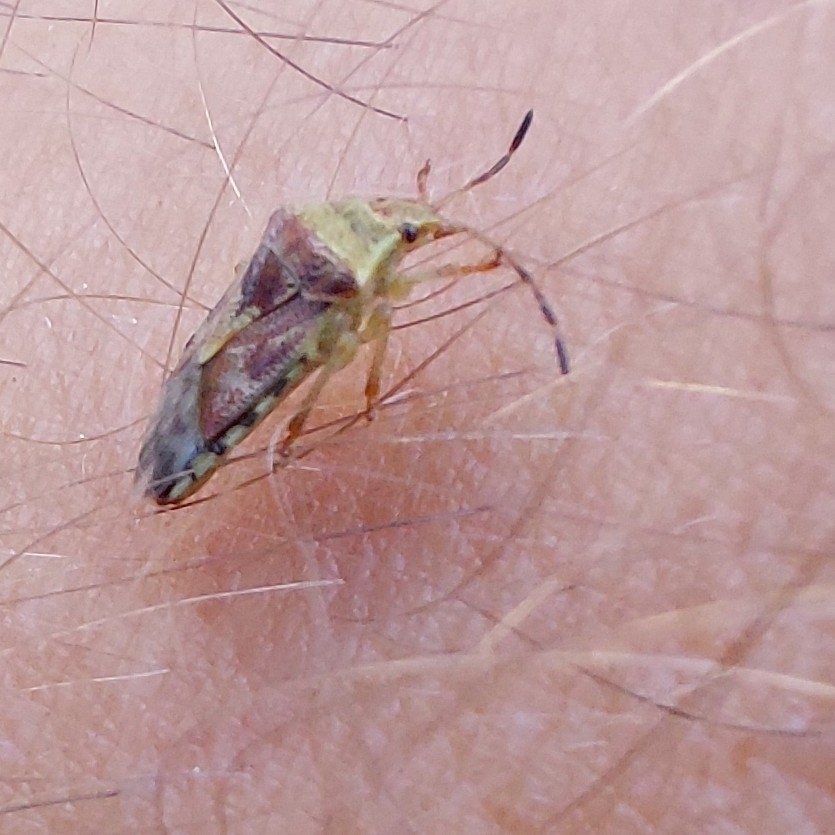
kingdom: Animalia
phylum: Arthropoda
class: Insecta
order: Hemiptera
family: Acanthosomatidae
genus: Elasmucha
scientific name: Elasmucha grisea
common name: Parent bug
